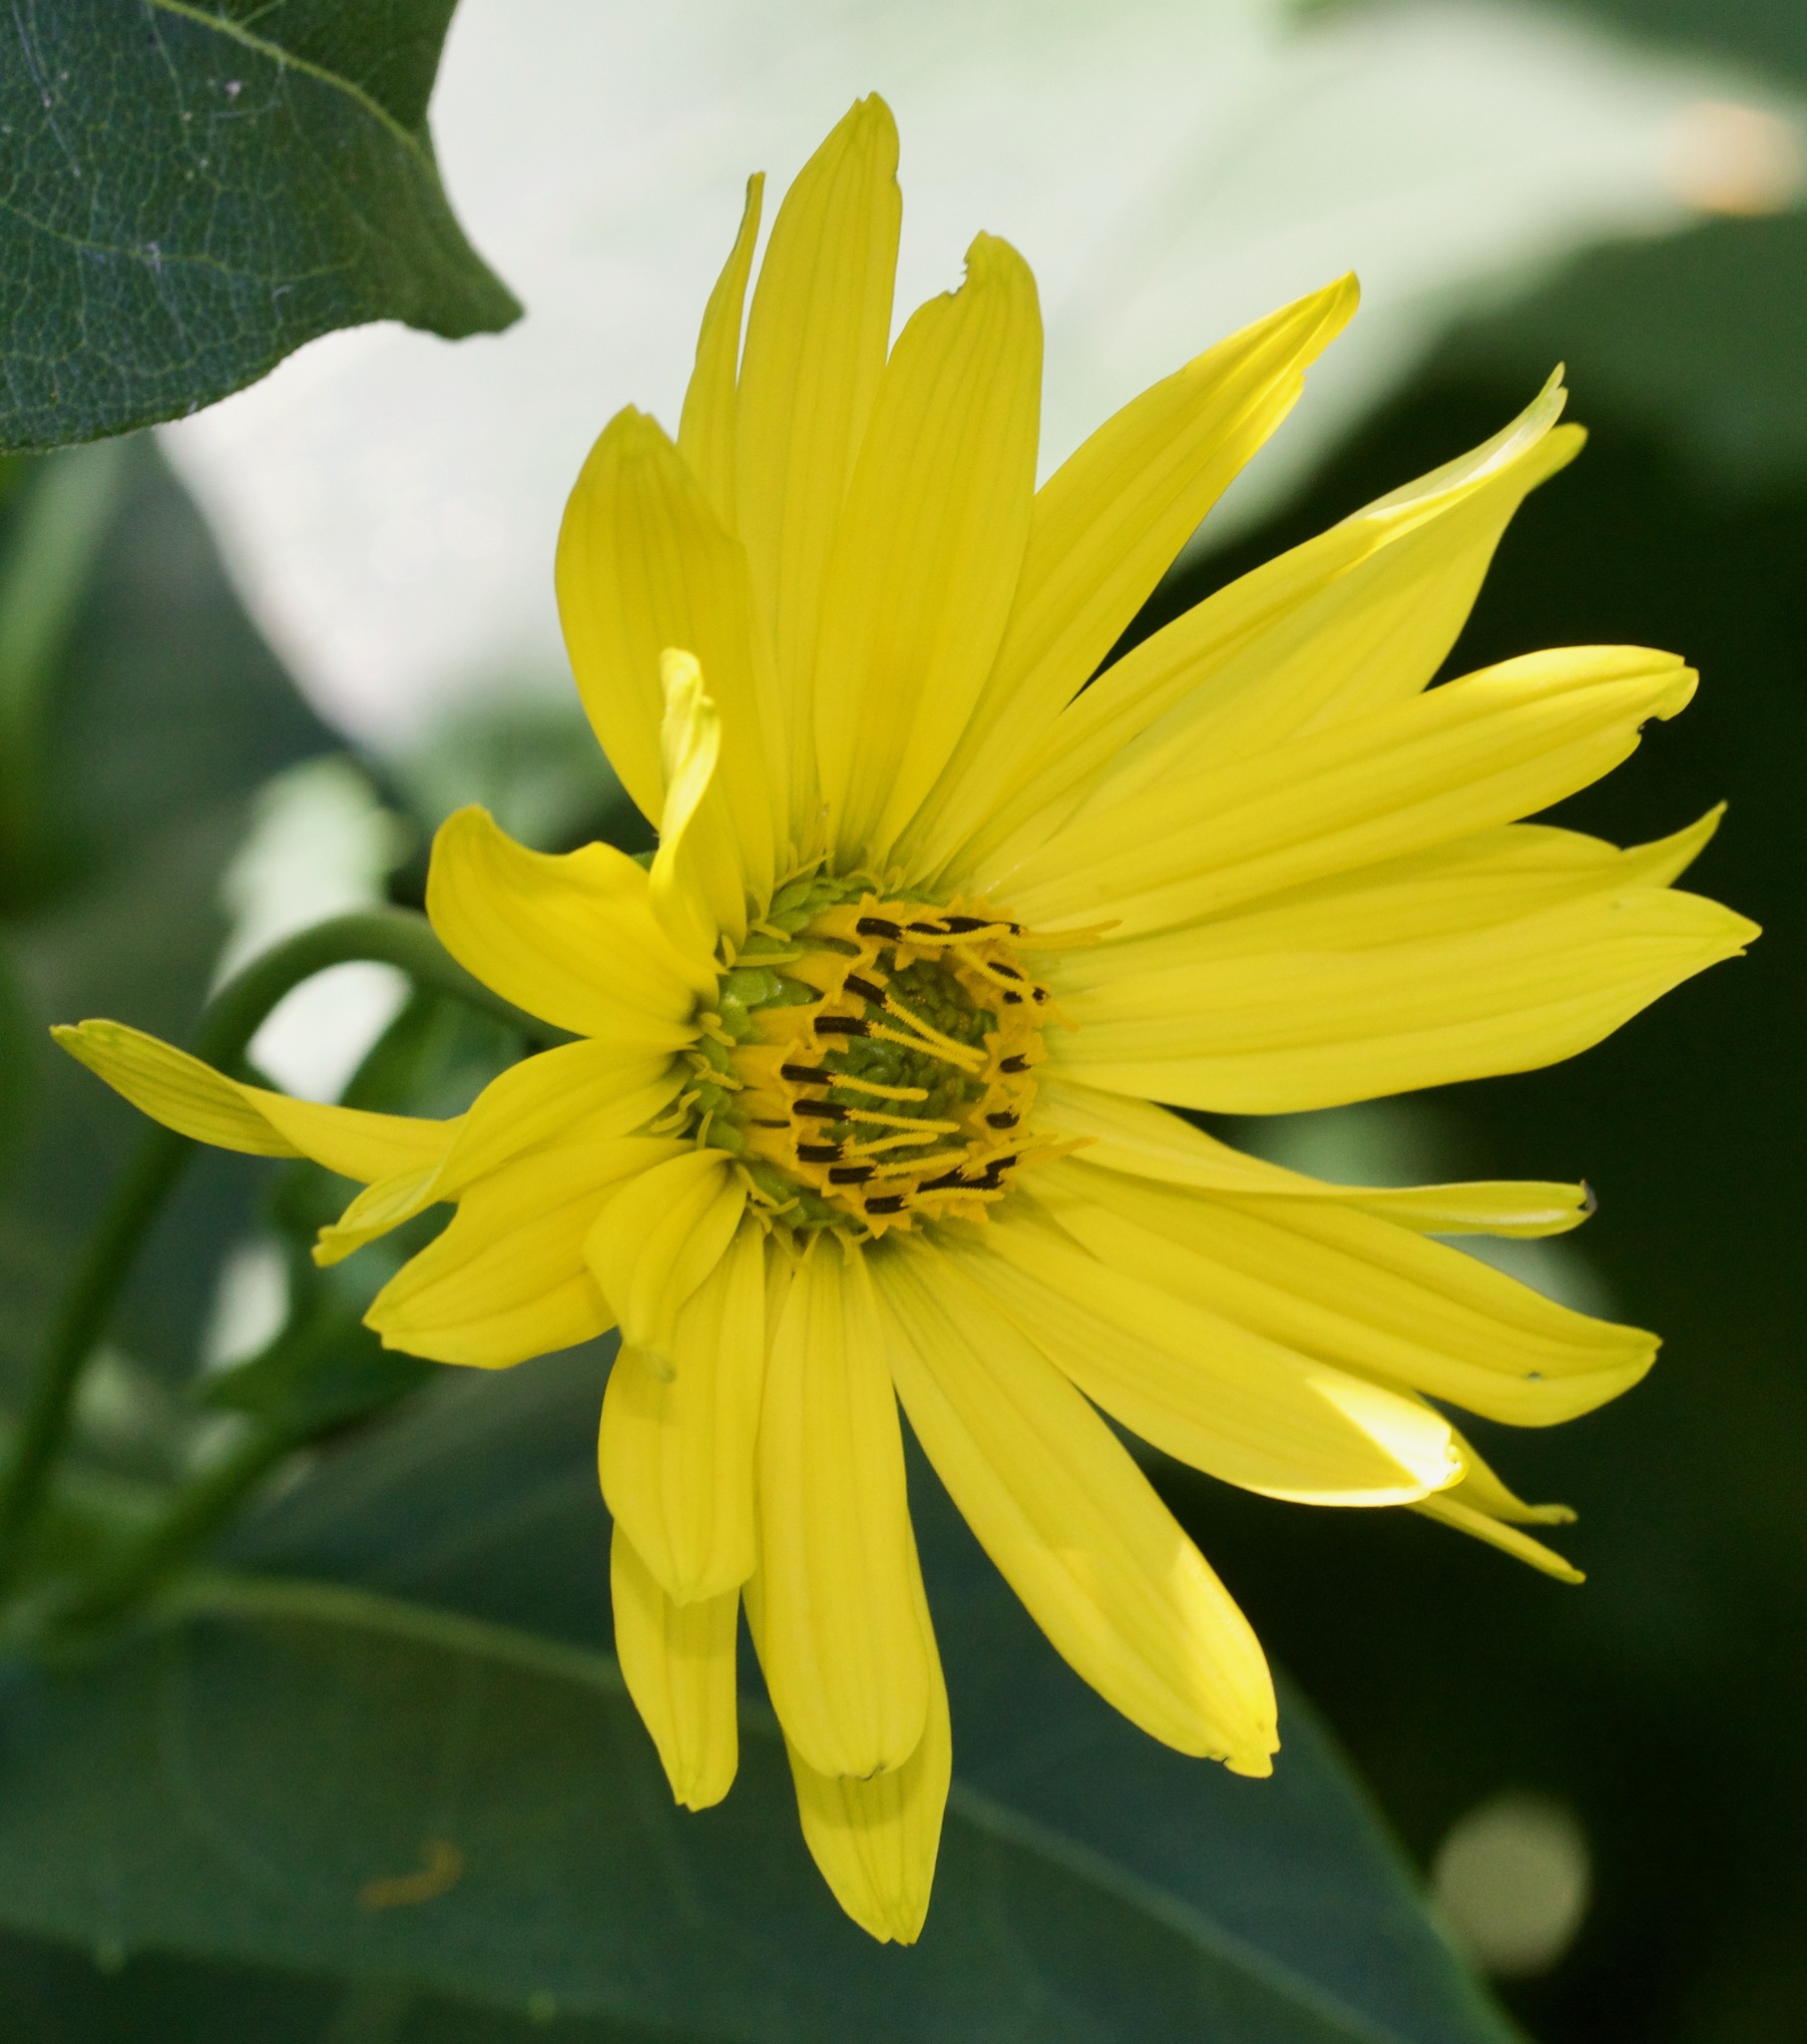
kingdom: Plantae
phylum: Tracheophyta
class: Magnoliopsida
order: Asterales
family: Asteraceae
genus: Silphium
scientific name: Silphium perfoliatum
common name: Cup-plant
